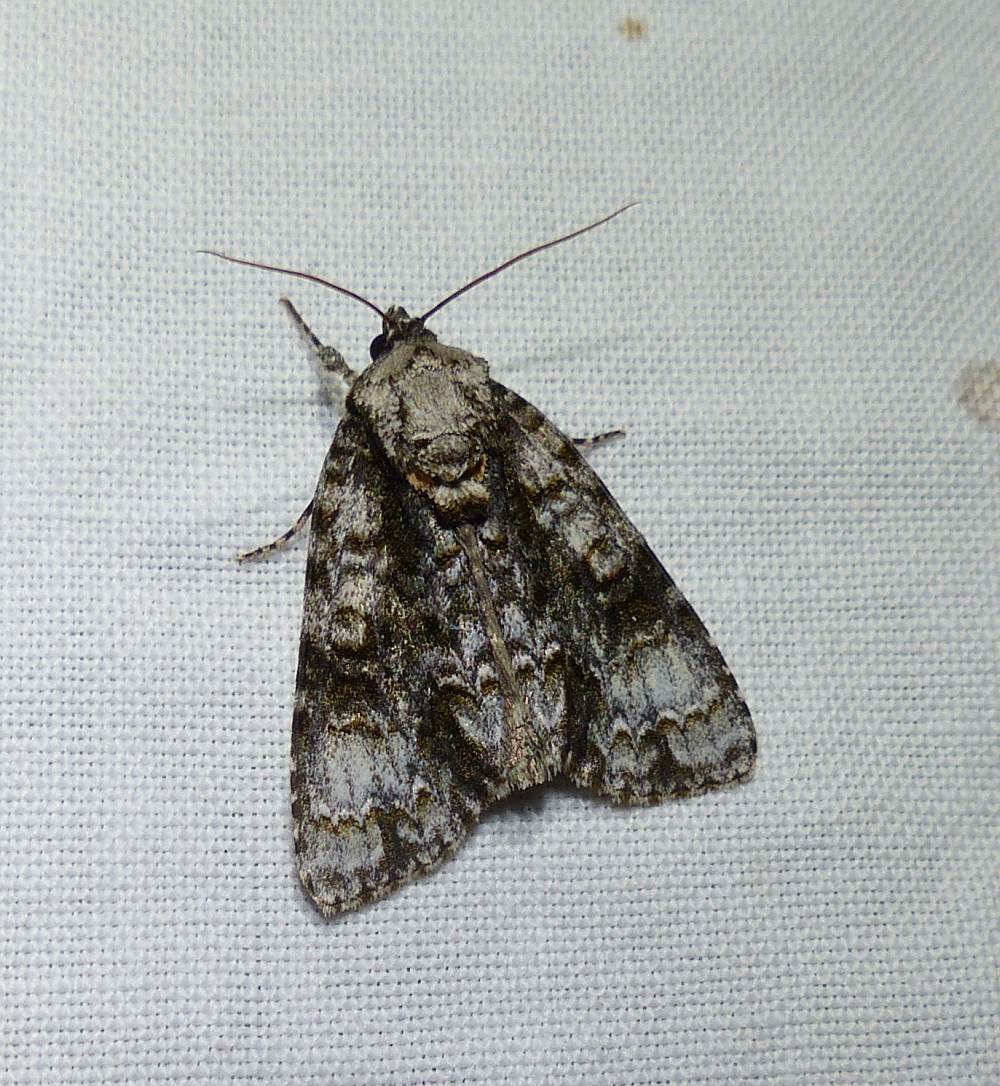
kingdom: Animalia
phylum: Arthropoda
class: Insecta
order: Lepidoptera
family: Noctuidae
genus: Acronicta
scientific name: Acronicta superans
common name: Splendid dagger
